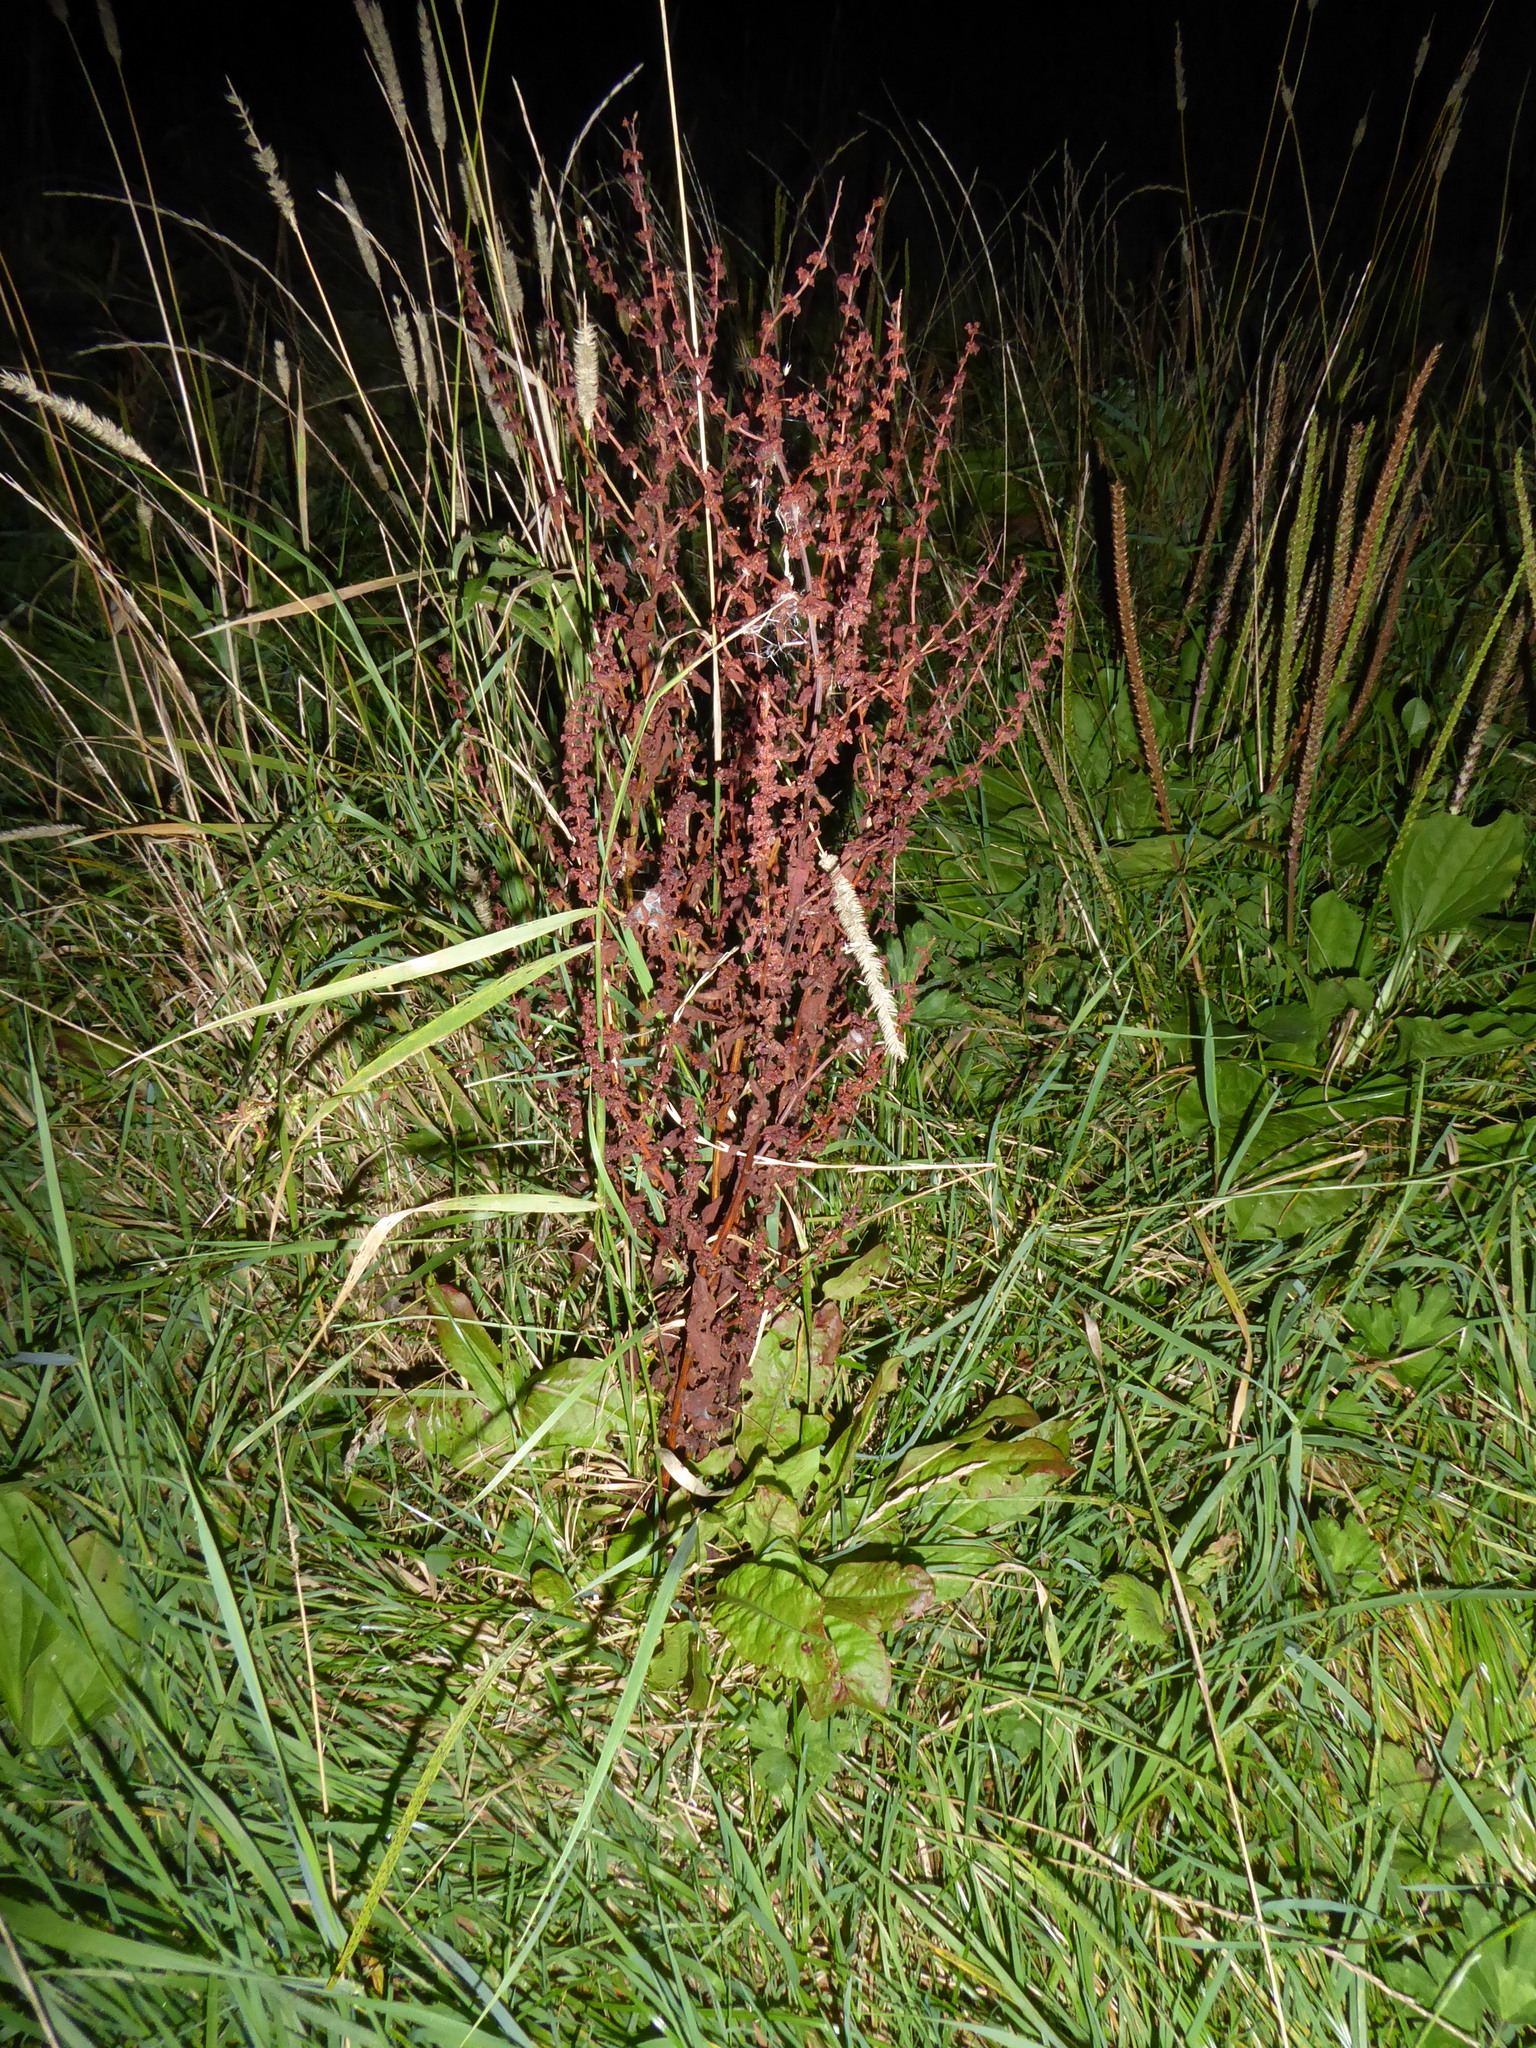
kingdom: Plantae
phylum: Tracheophyta
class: Magnoliopsida
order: Caryophyllales
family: Polygonaceae
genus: Rumex
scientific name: Rumex conglomeratus
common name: Clustered dock
